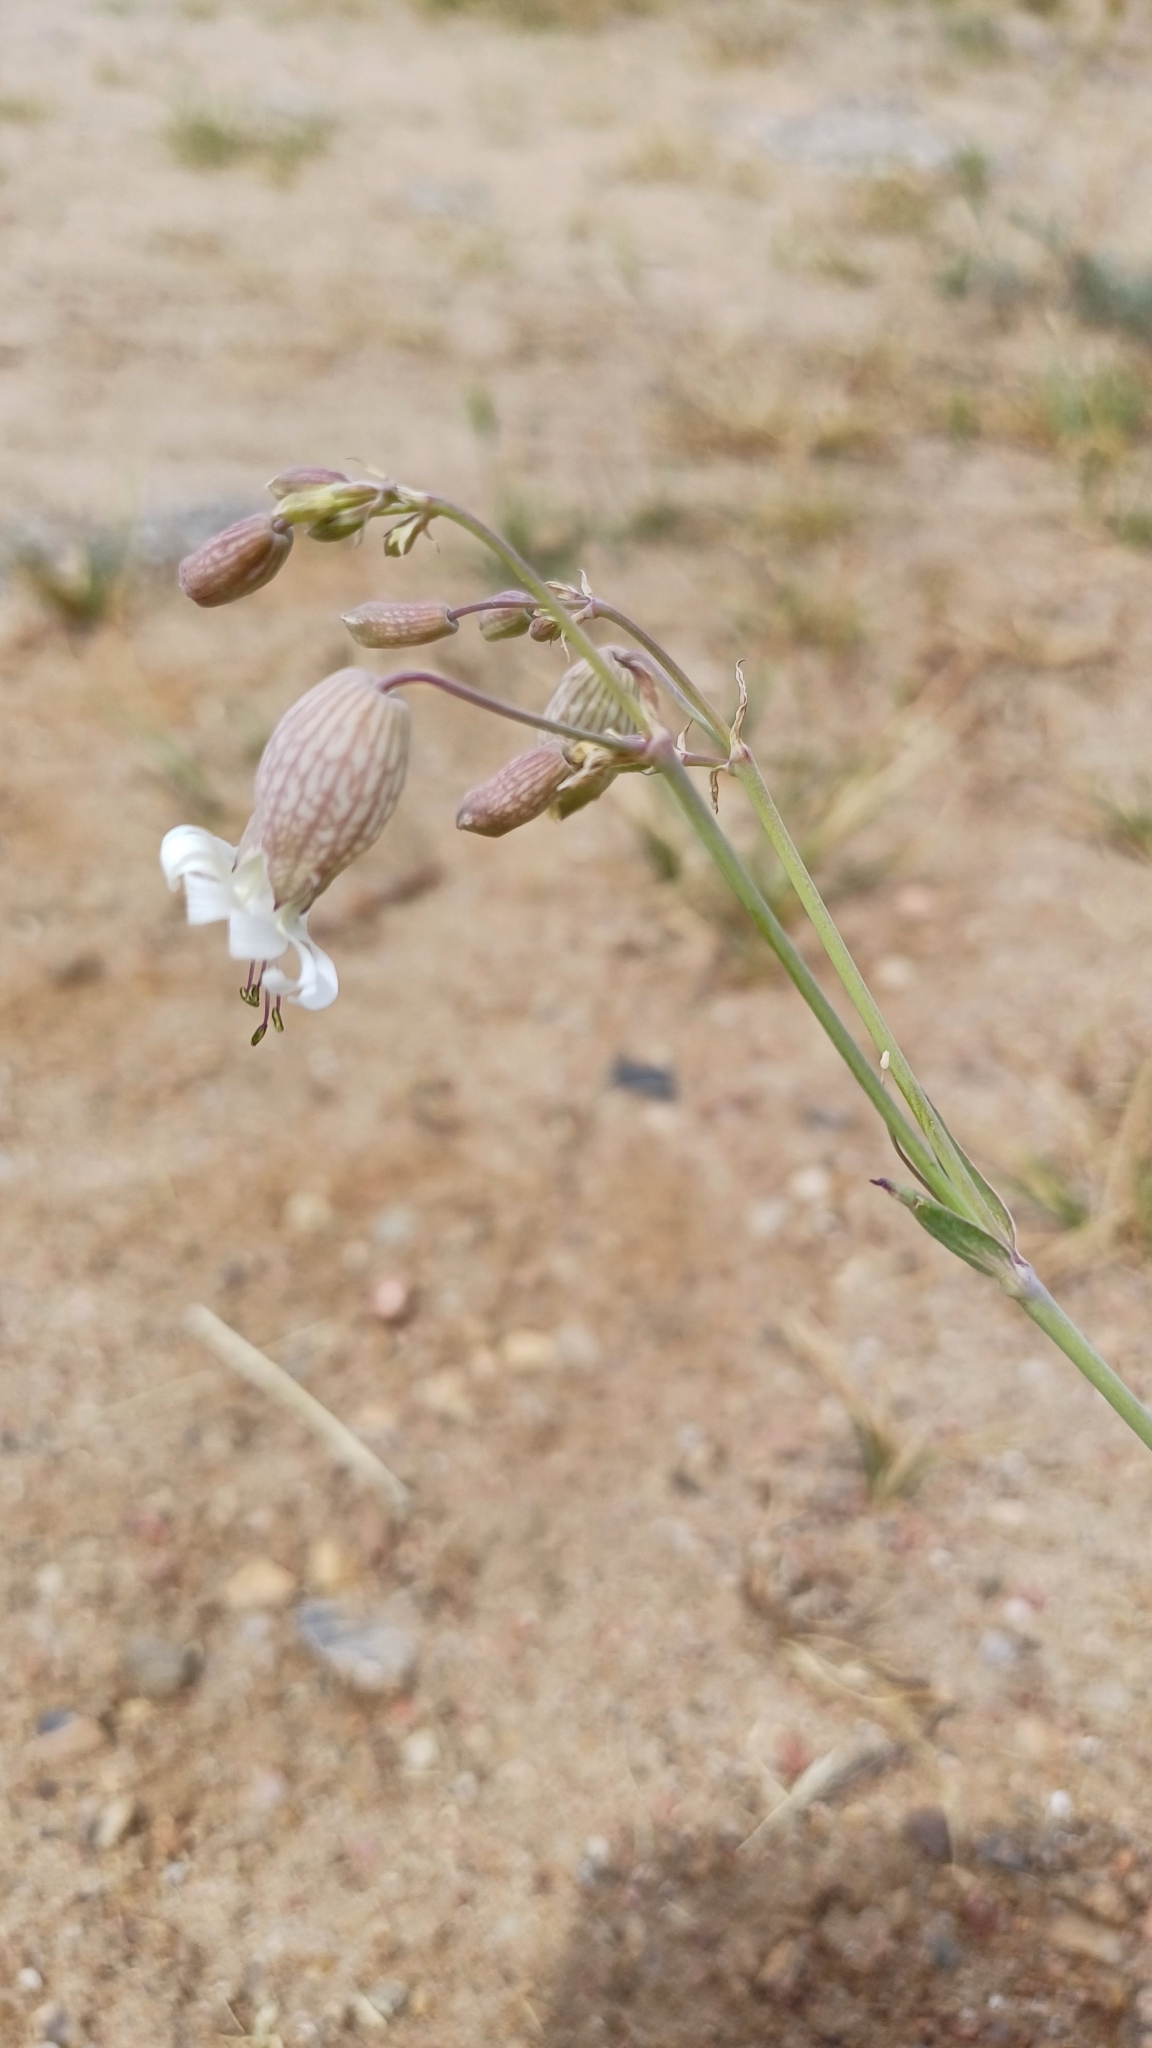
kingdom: Plantae
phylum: Tracheophyta
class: Magnoliopsida
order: Caryophyllales
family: Caryophyllaceae
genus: Silene
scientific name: Silene vulgaris
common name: Bladder campion
